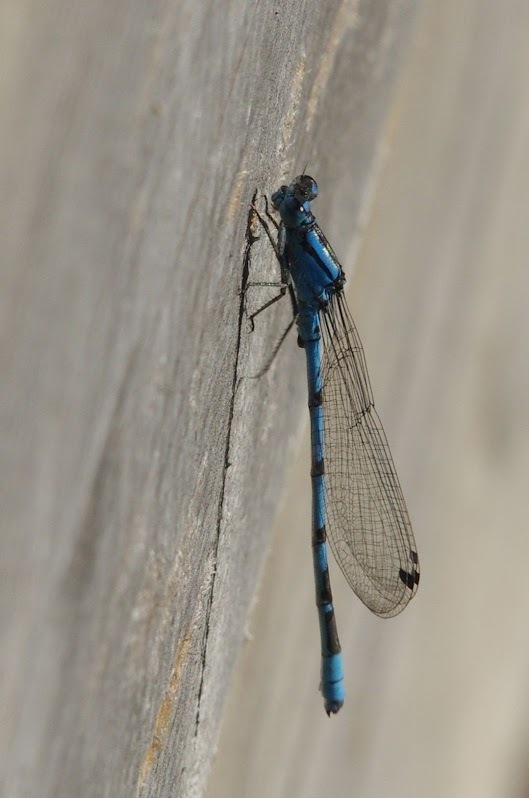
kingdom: Animalia
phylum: Arthropoda
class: Insecta
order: Odonata
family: Coenagrionidae
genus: Enallagma
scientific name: Enallagma cyathigerum
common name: Common blue damselfly
